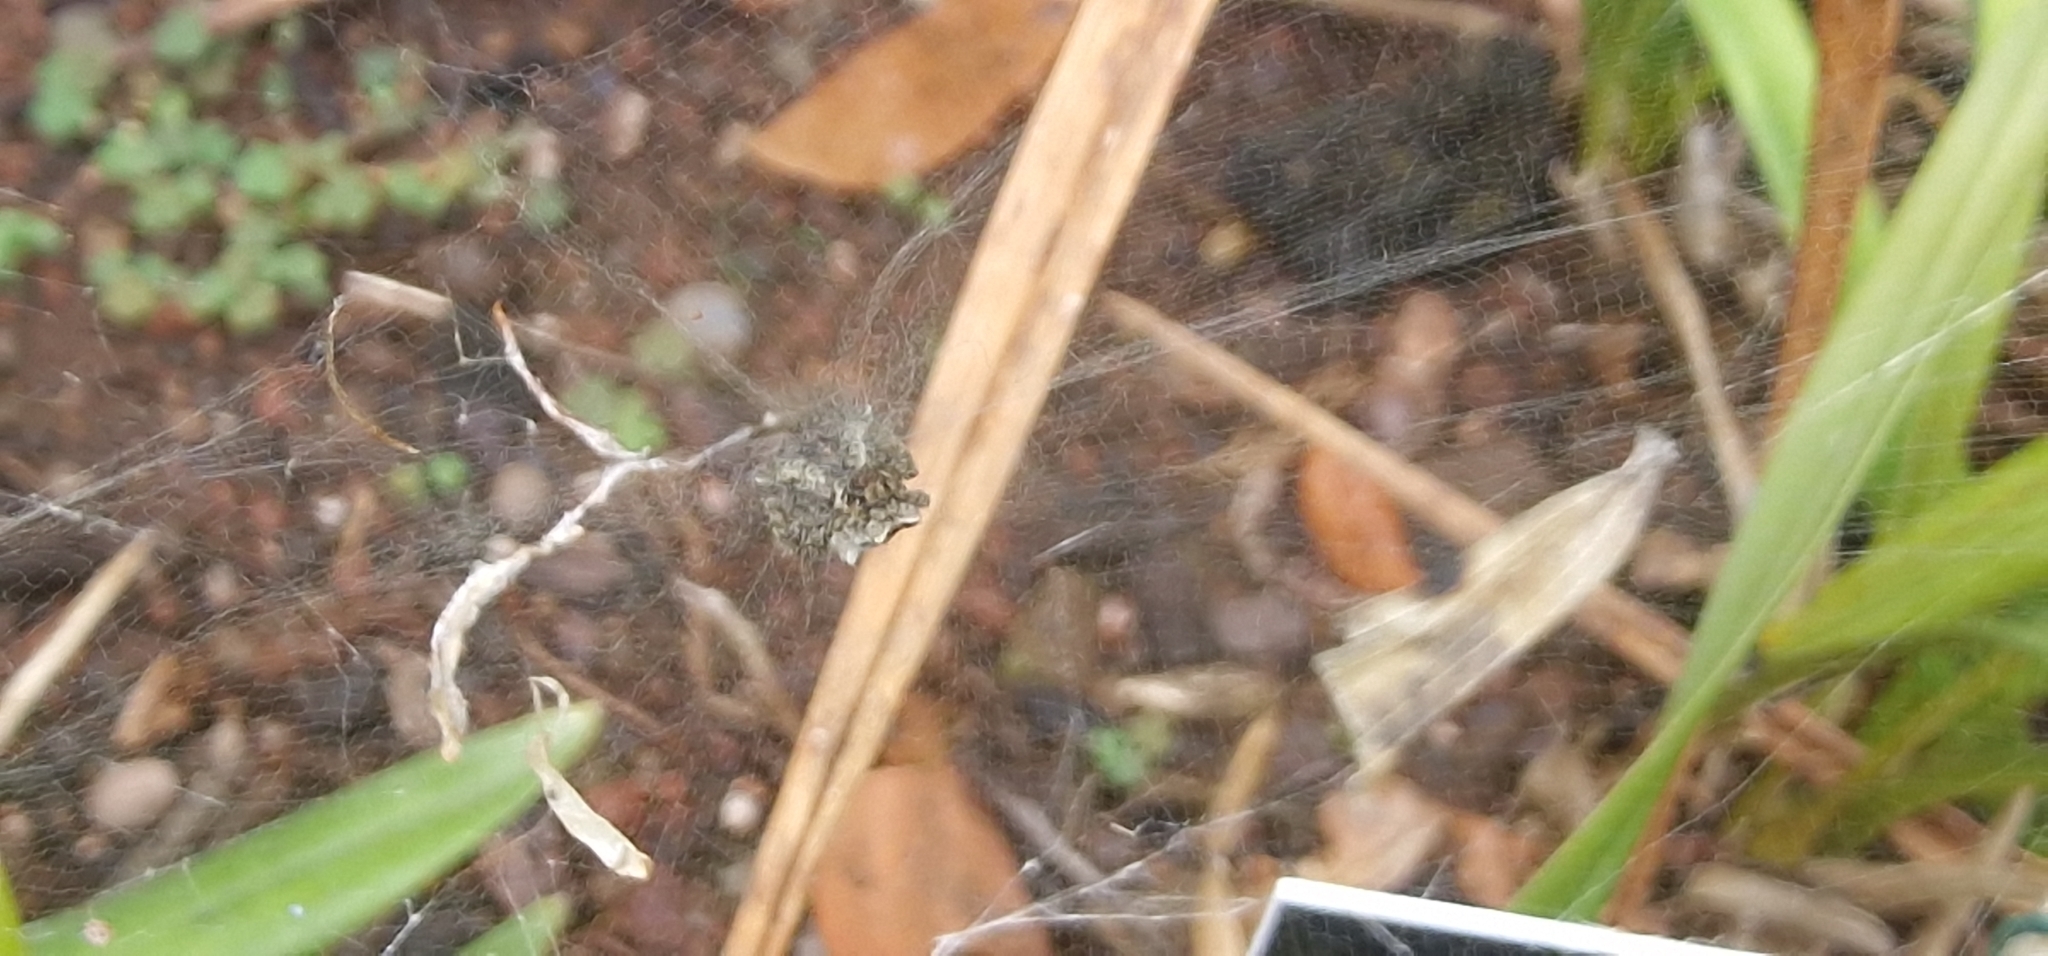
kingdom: Animalia
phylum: Arthropoda
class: Arachnida
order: Araneae
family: Araneidae
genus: Cyrtophora
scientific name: Cyrtophora citricola
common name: Orb weavers
